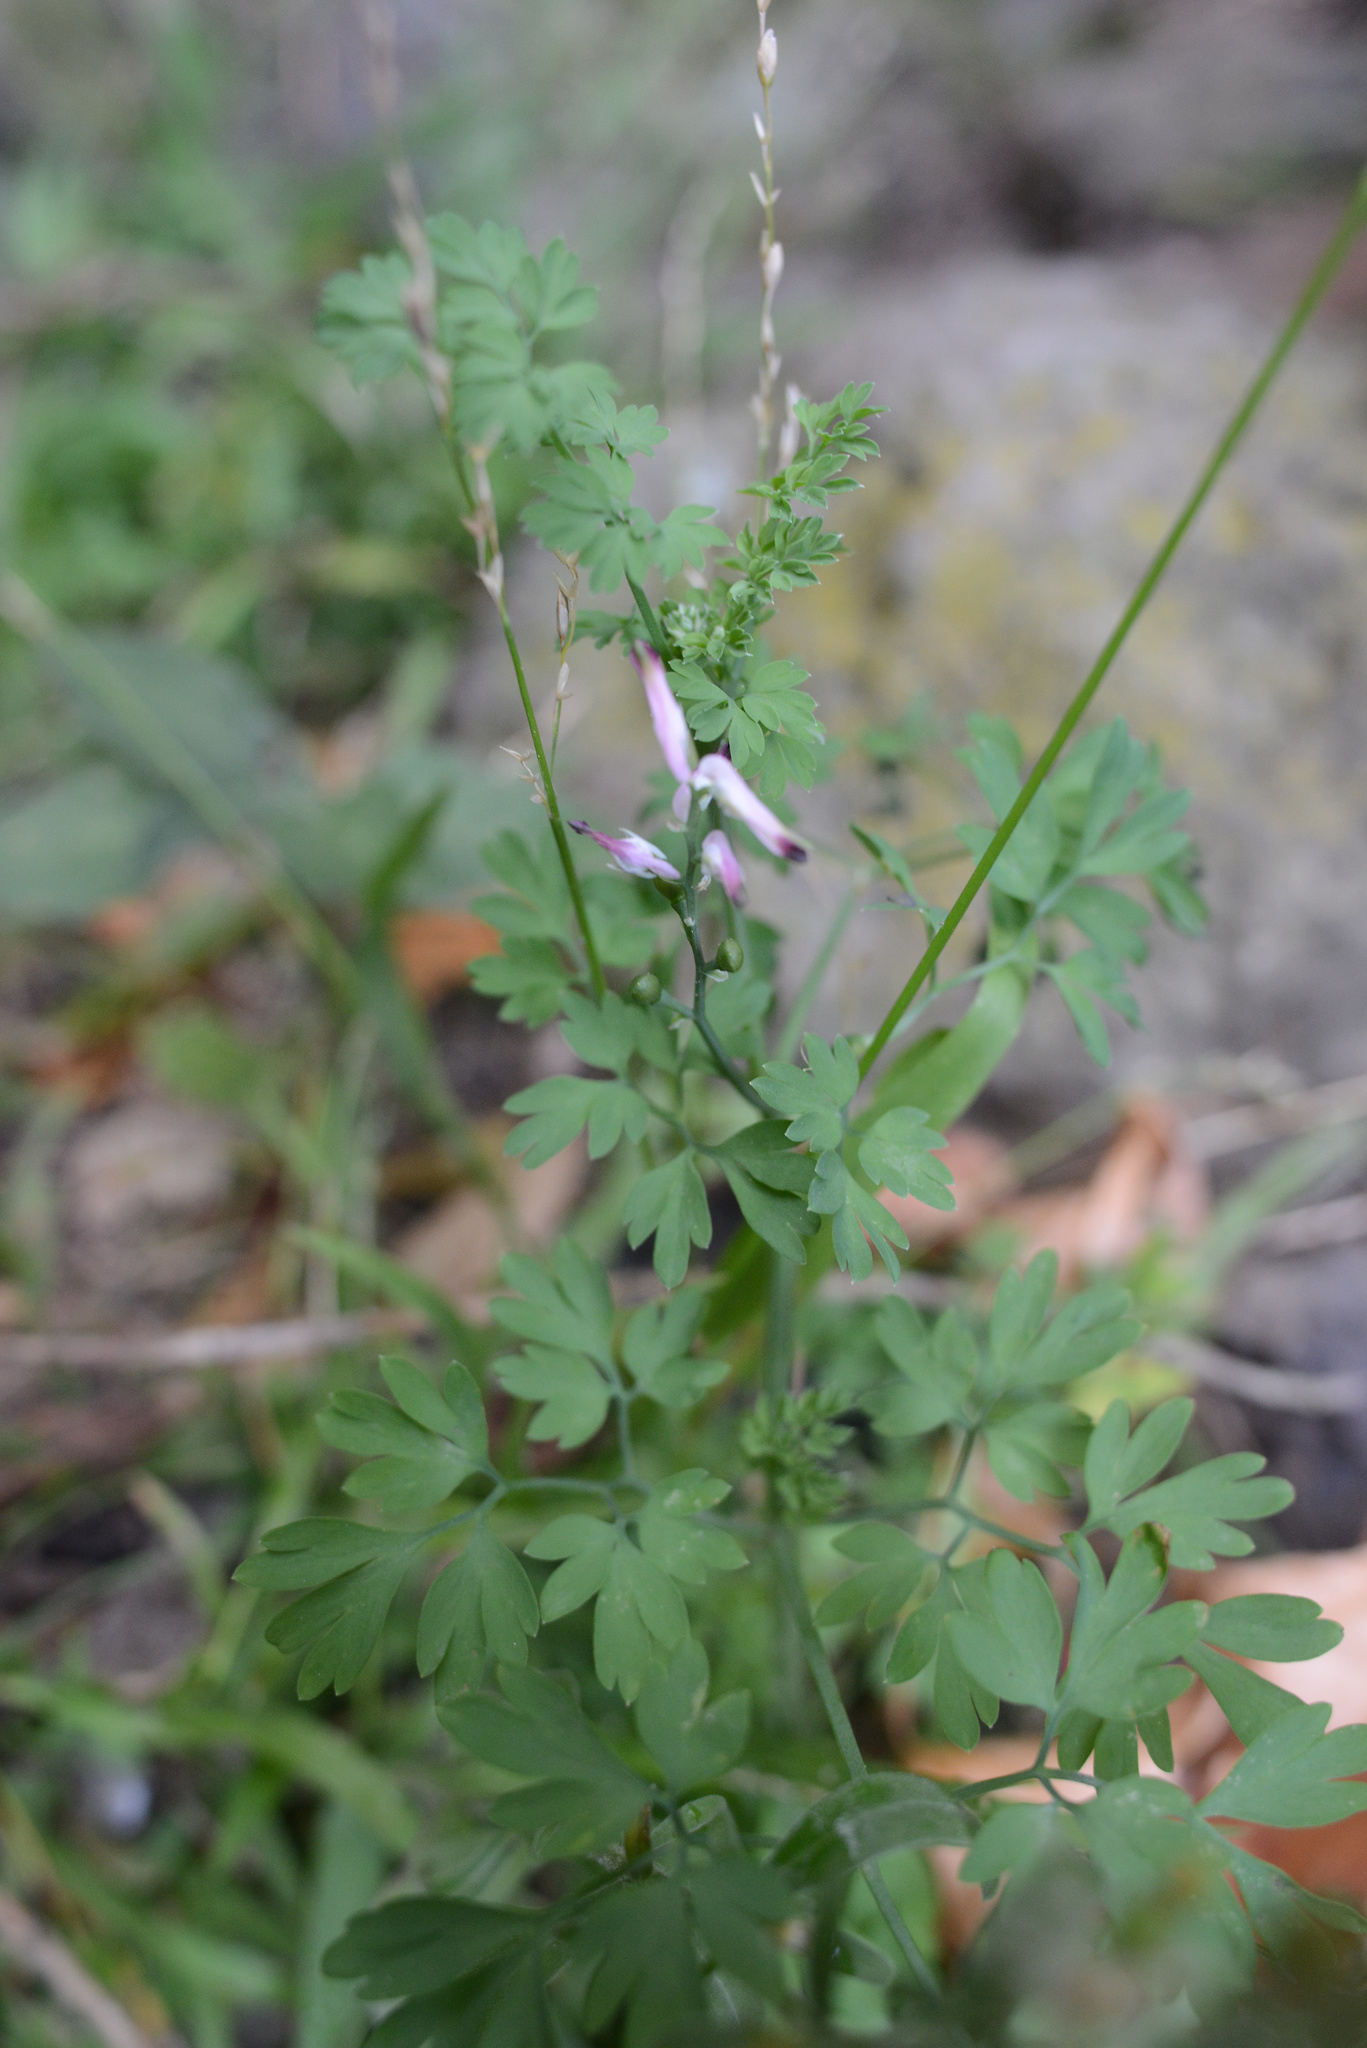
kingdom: Plantae
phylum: Tracheophyta
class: Magnoliopsida
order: Ranunculales
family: Papaveraceae
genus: Fumaria
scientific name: Fumaria muralis
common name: Common ramping-fumitory
